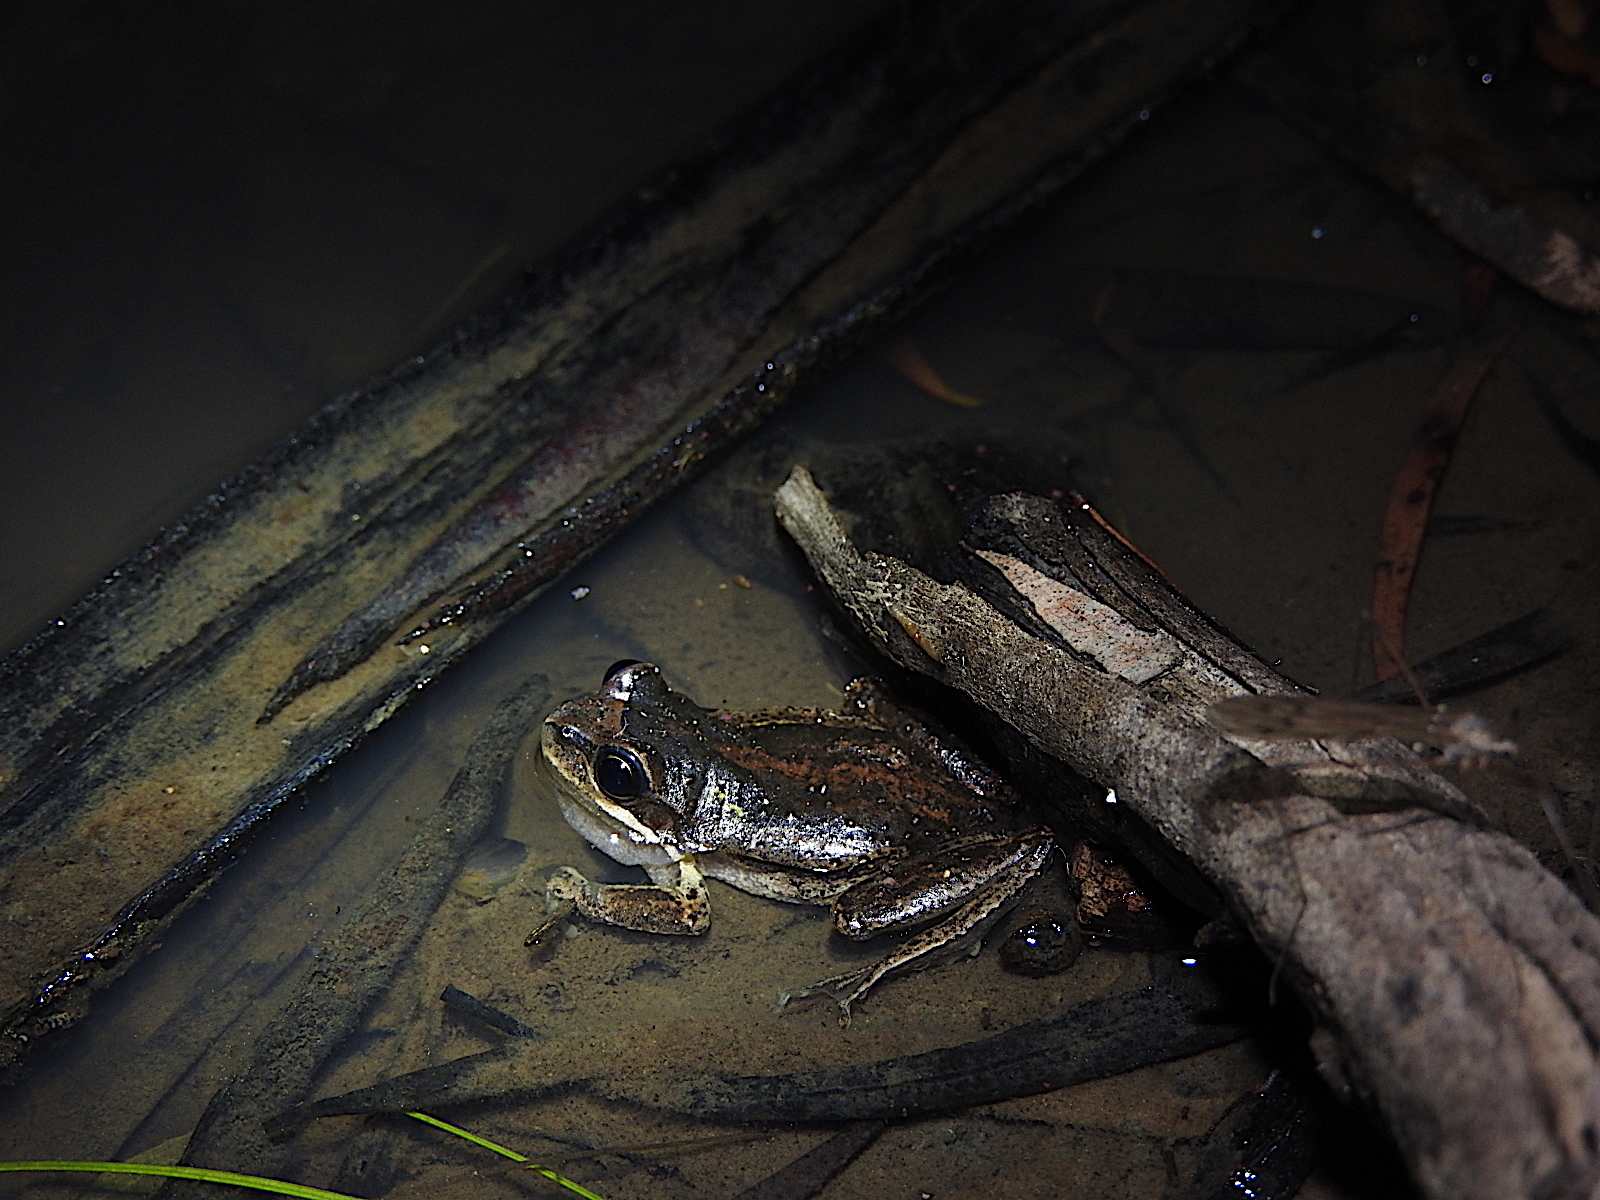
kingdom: Animalia
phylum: Chordata
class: Amphibia
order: Anura
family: Pelodryadidae
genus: Litoria
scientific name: Litoria ewingii
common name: Southern brown tree frog
